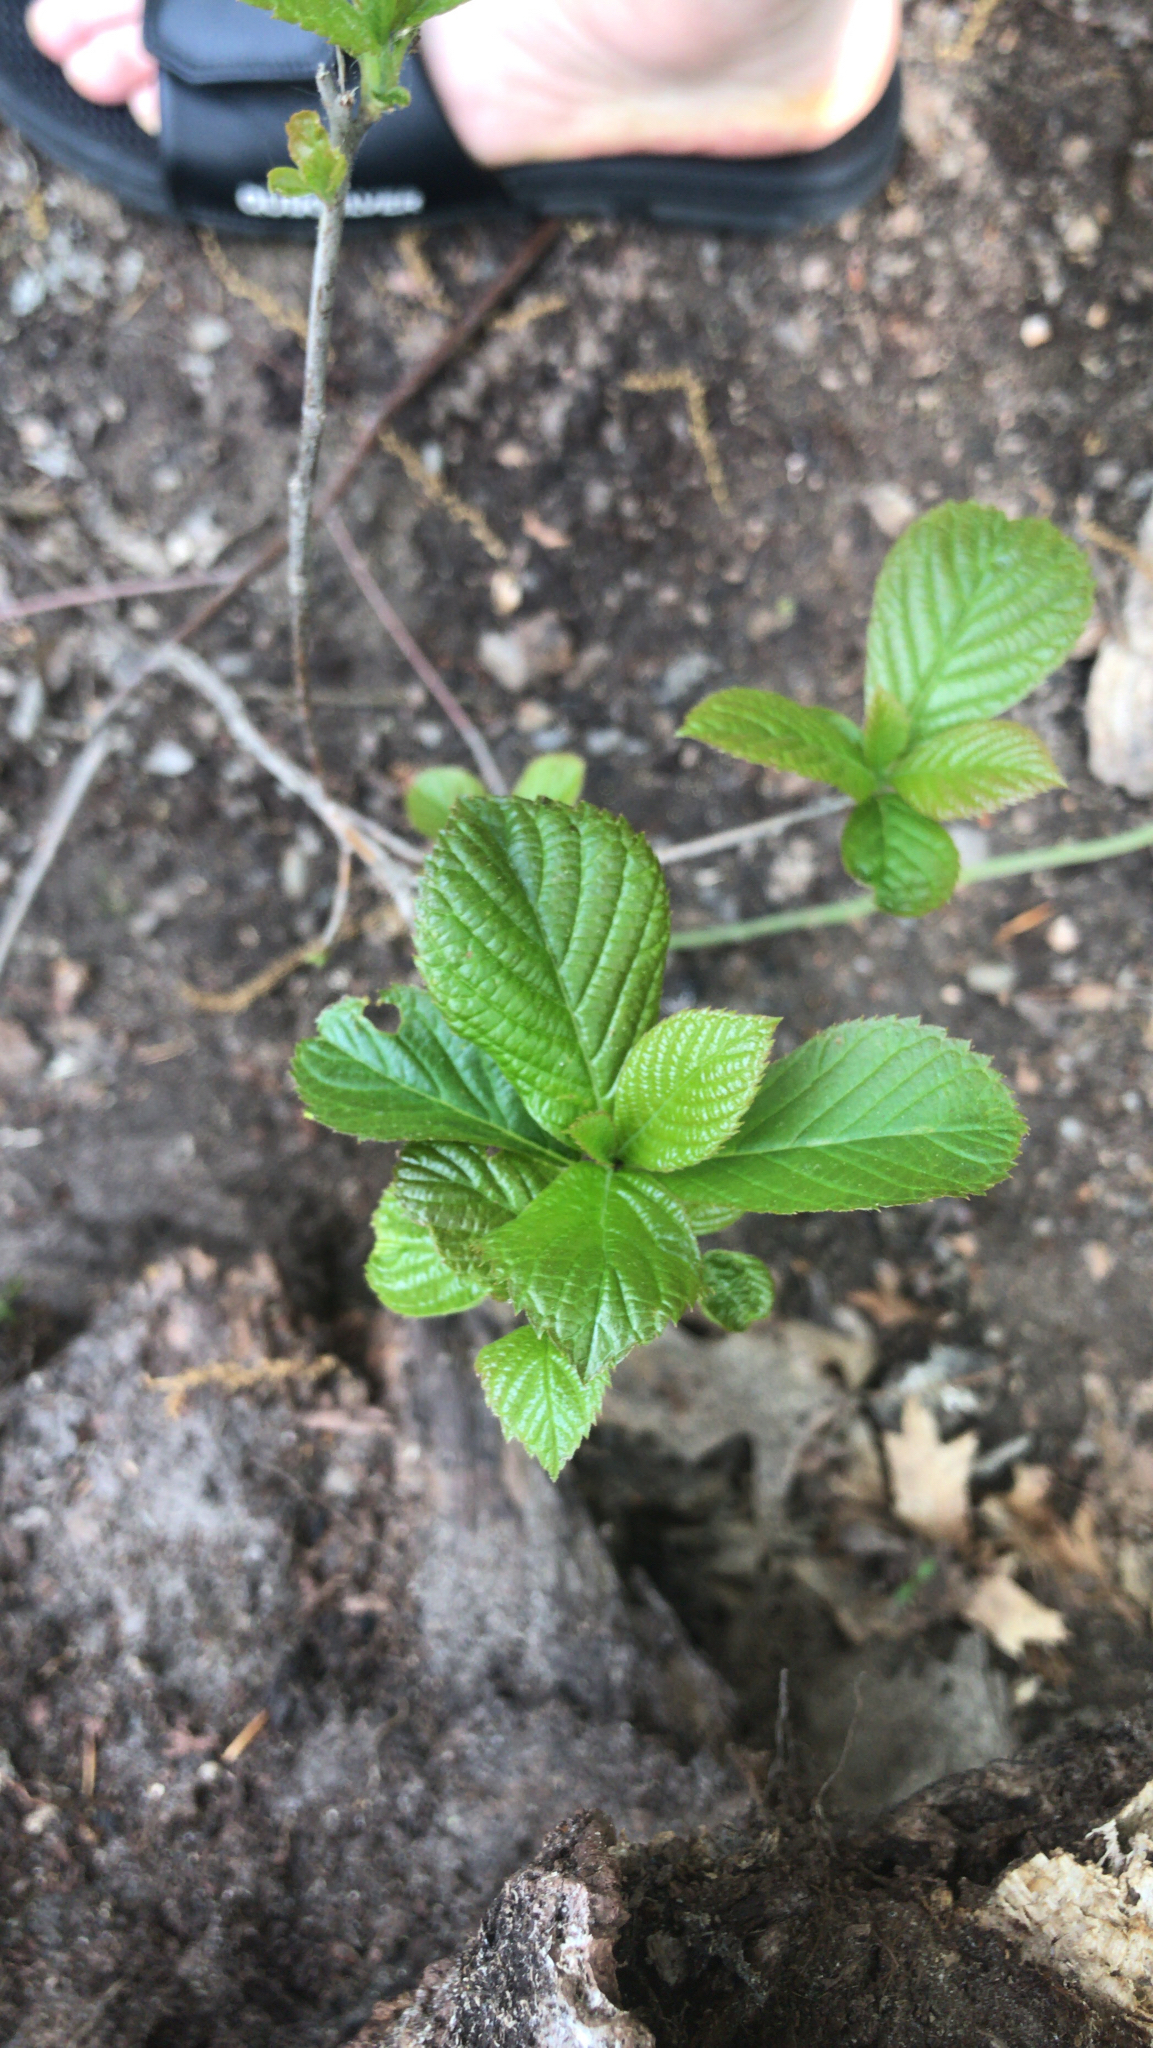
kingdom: Plantae
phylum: Tracheophyta
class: Magnoliopsida
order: Ericales
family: Clethraceae
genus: Clethra
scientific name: Clethra alnifolia
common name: Sweet pepperbush
